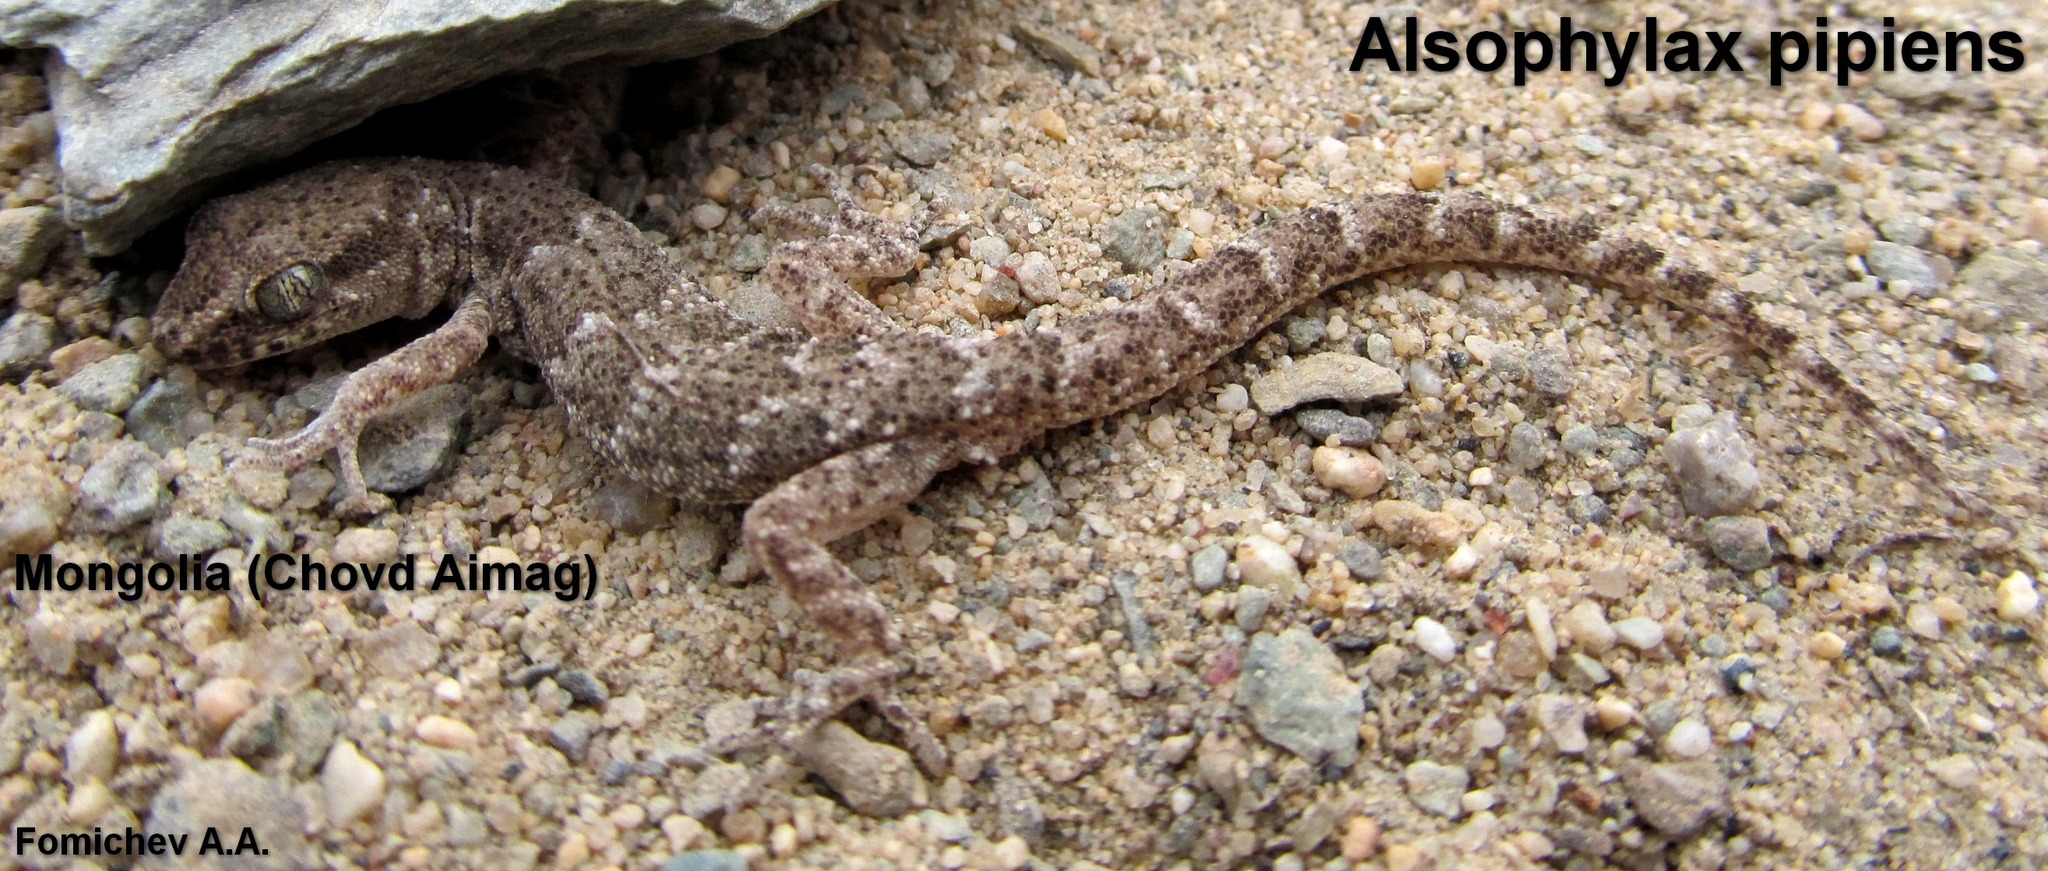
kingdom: Animalia
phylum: Chordata
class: Squamata
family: Gekkonidae
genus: Alsophylax
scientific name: Alsophylax pipiens
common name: Even-fingered gecko
